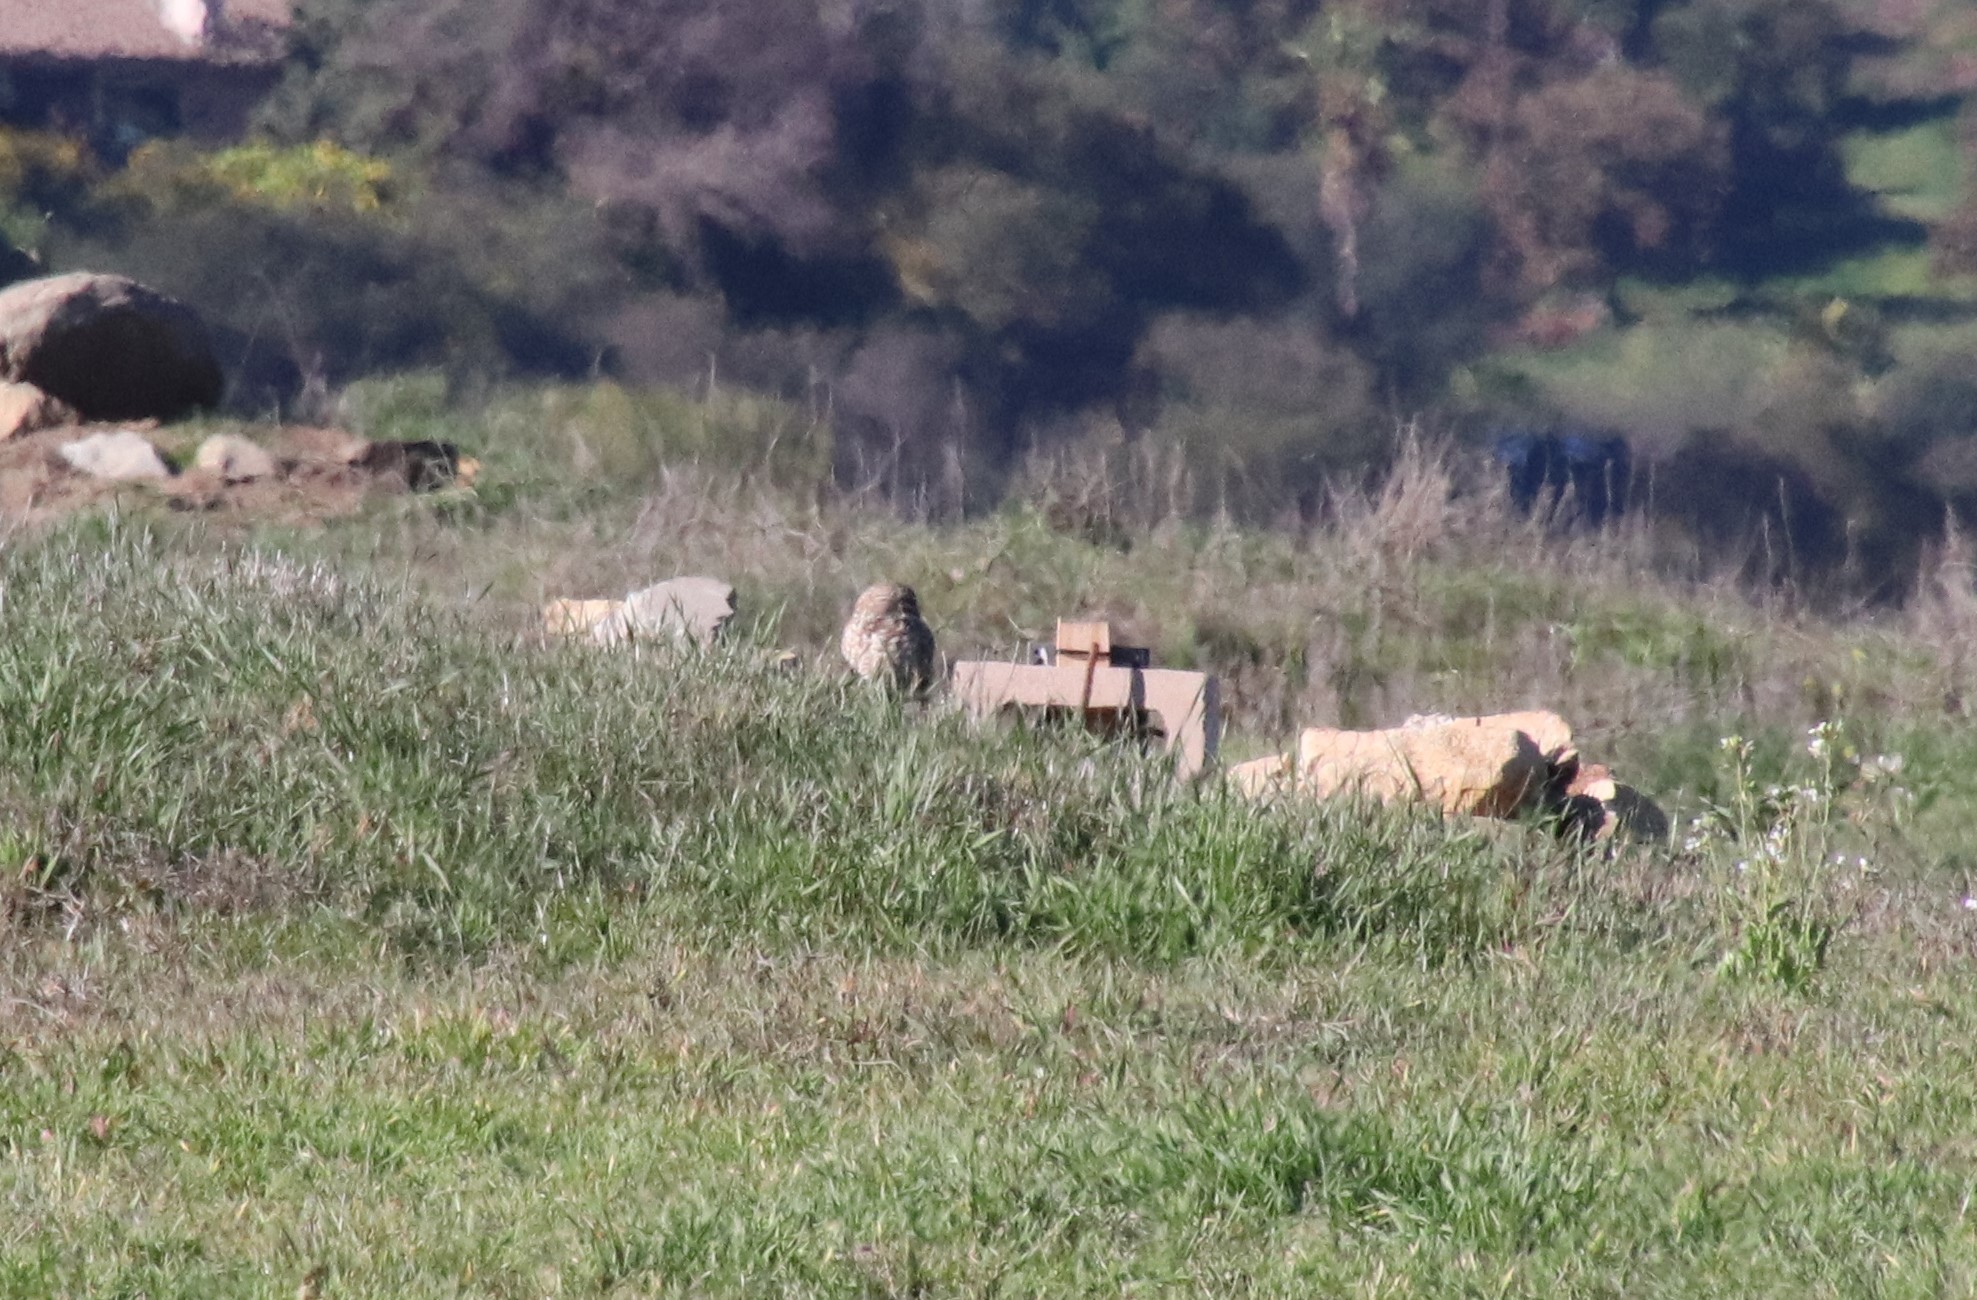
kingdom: Animalia
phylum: Chordata
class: Aves
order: Strigiformes
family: Strigidae
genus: Athene
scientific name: Athene cunicularia
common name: Burrowing owl
